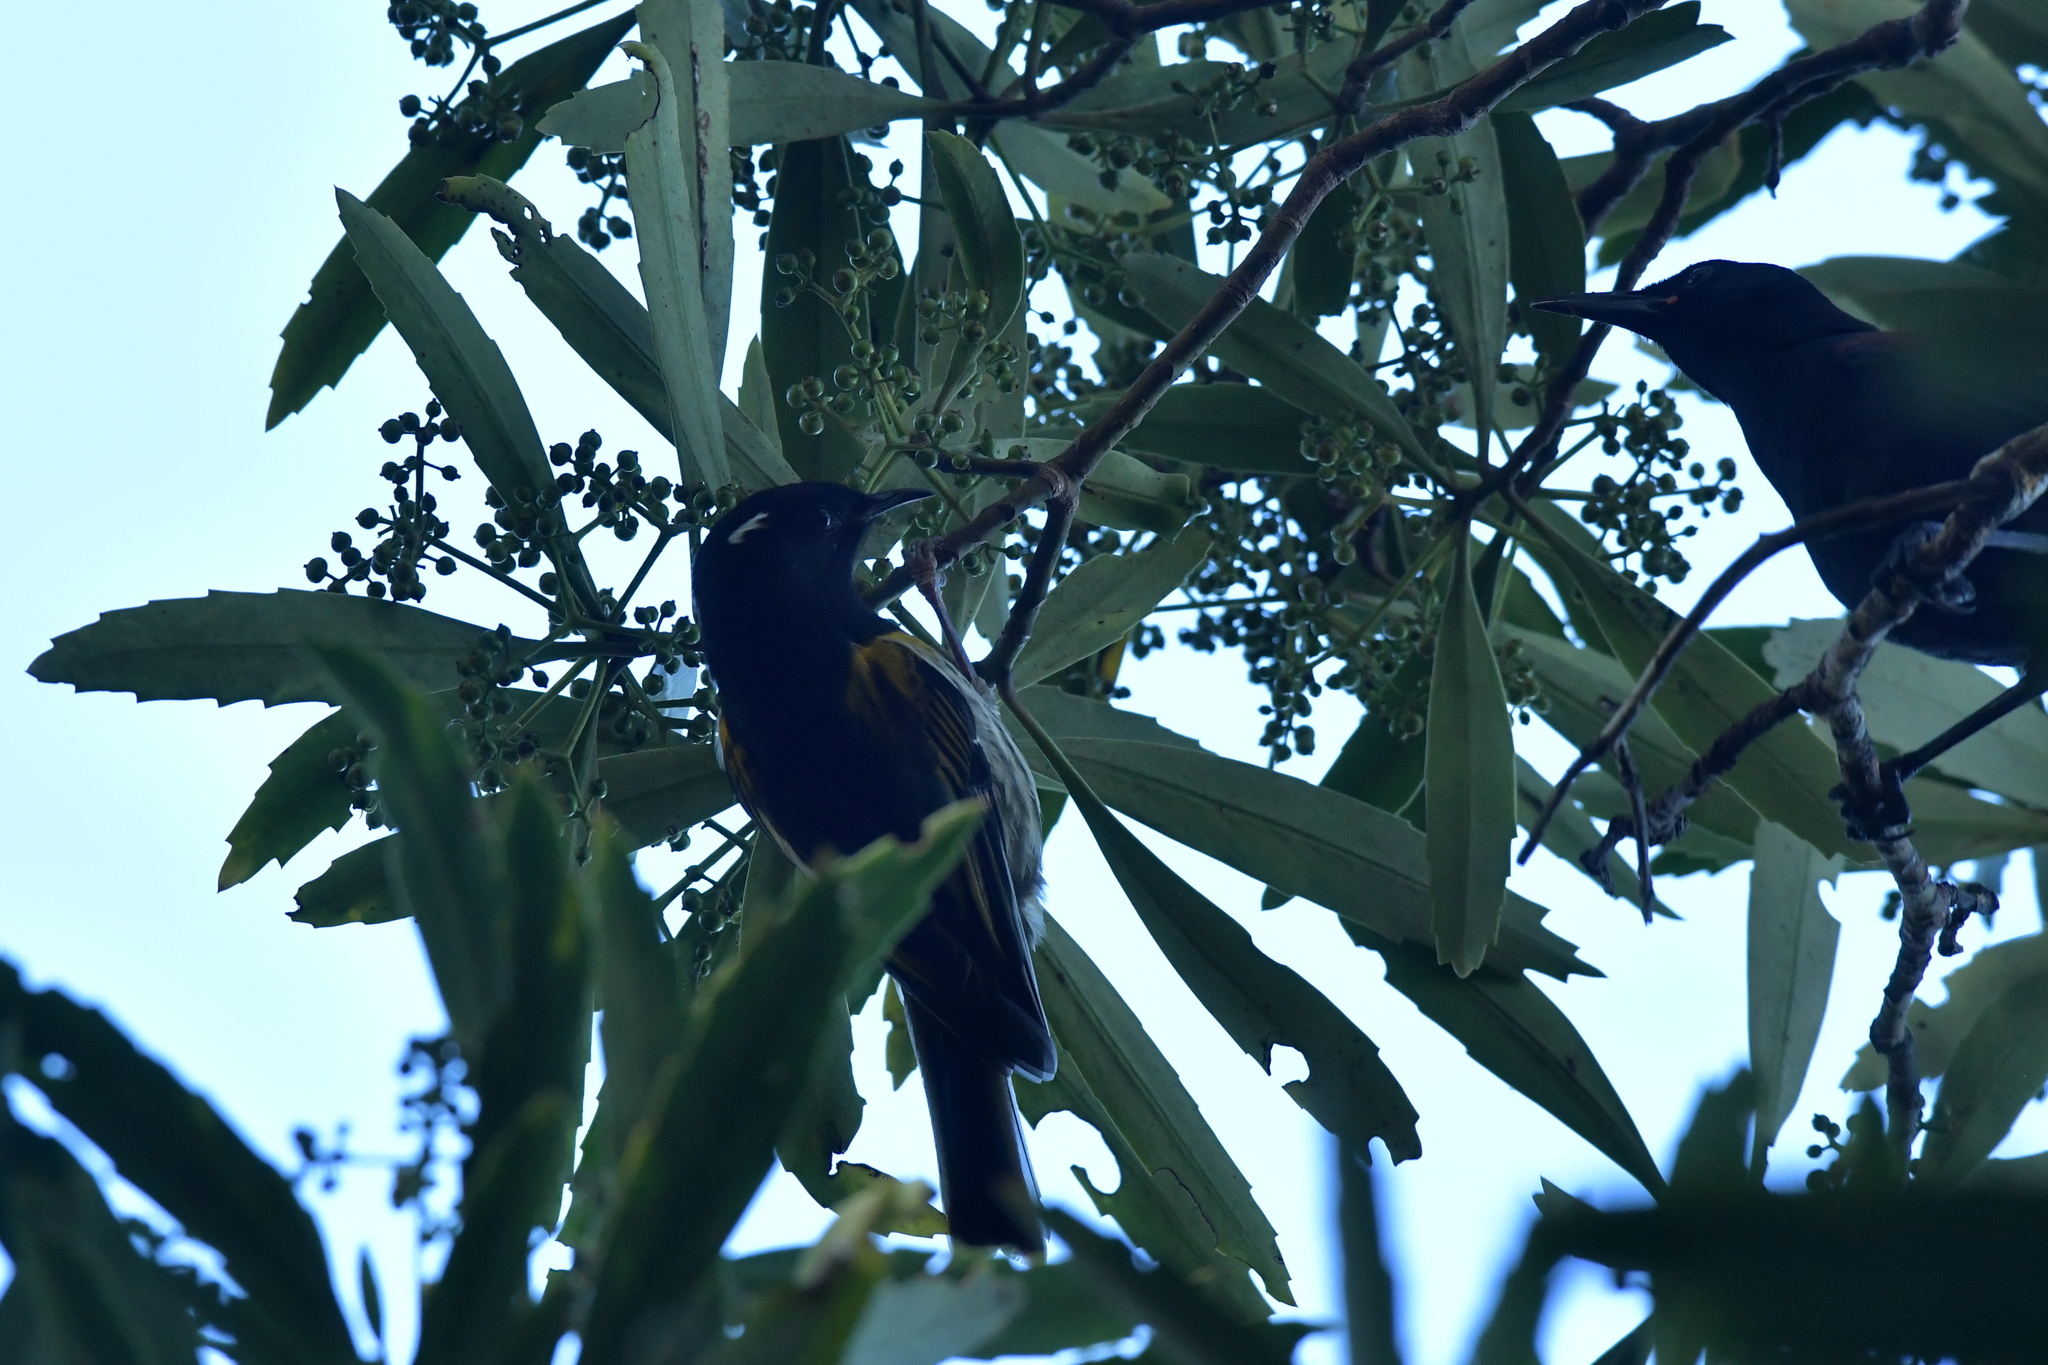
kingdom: Animalia
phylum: Chordata
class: Aves
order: Passeriformes
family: Notiomystidae
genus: Notiomystis
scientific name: Notiomystis cincta
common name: Stitchbird
